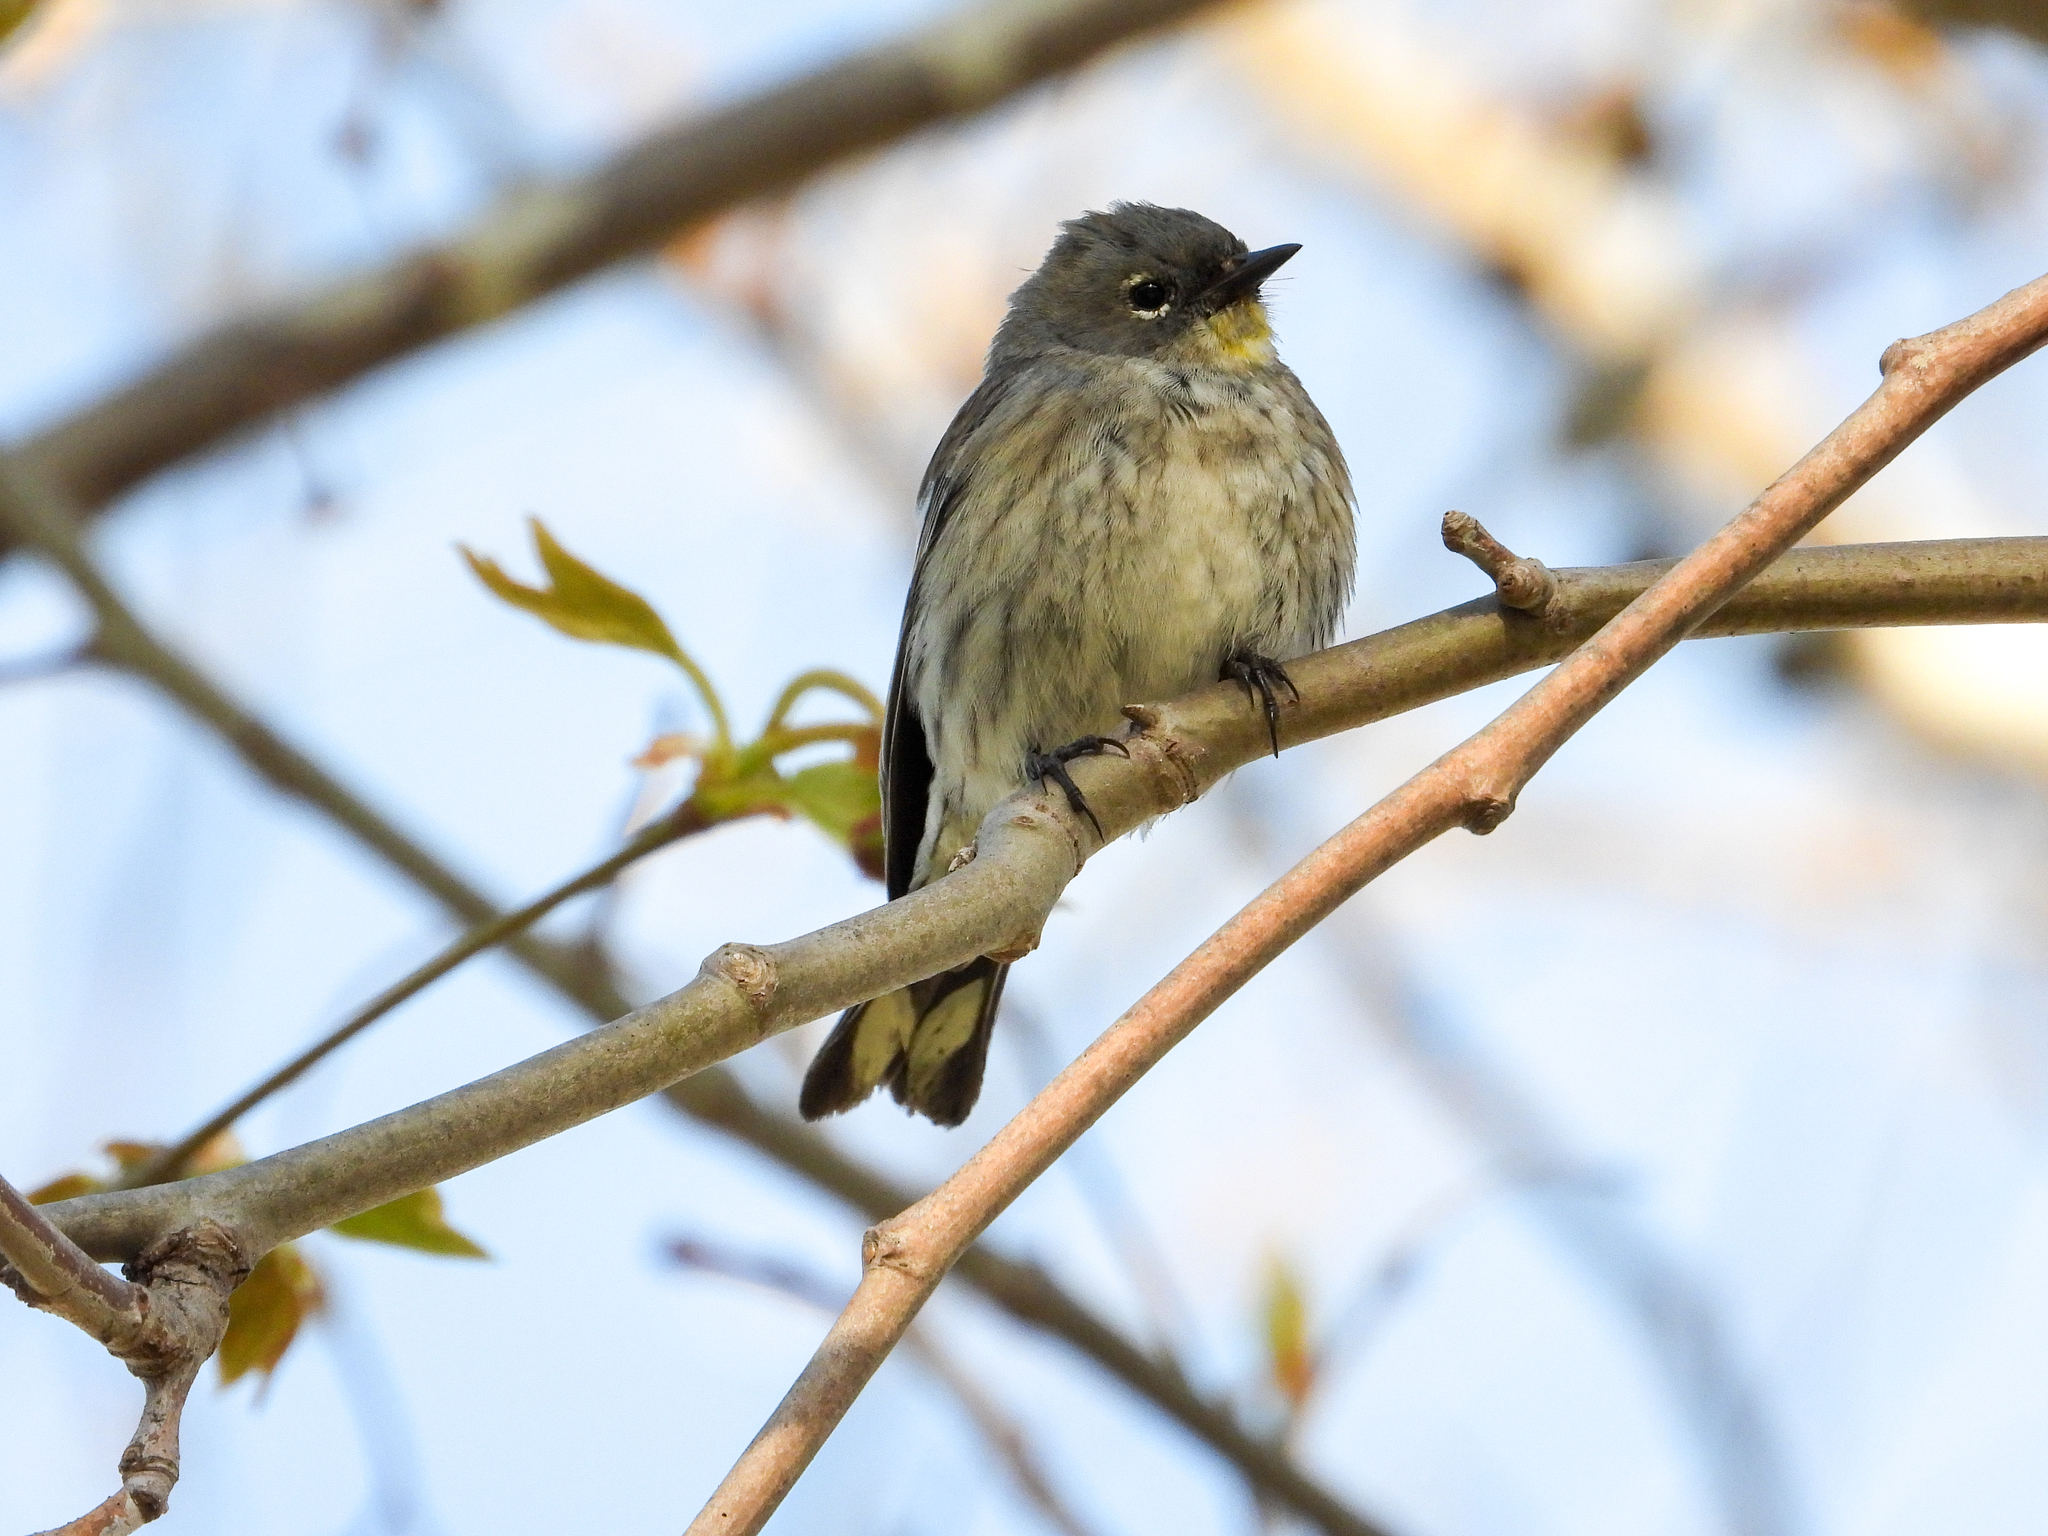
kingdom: Animalia
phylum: Chordata
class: Aves
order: Passeriformes
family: Parulidae
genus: Setophaga
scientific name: Setophaga coronata
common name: Myrtle warbler
